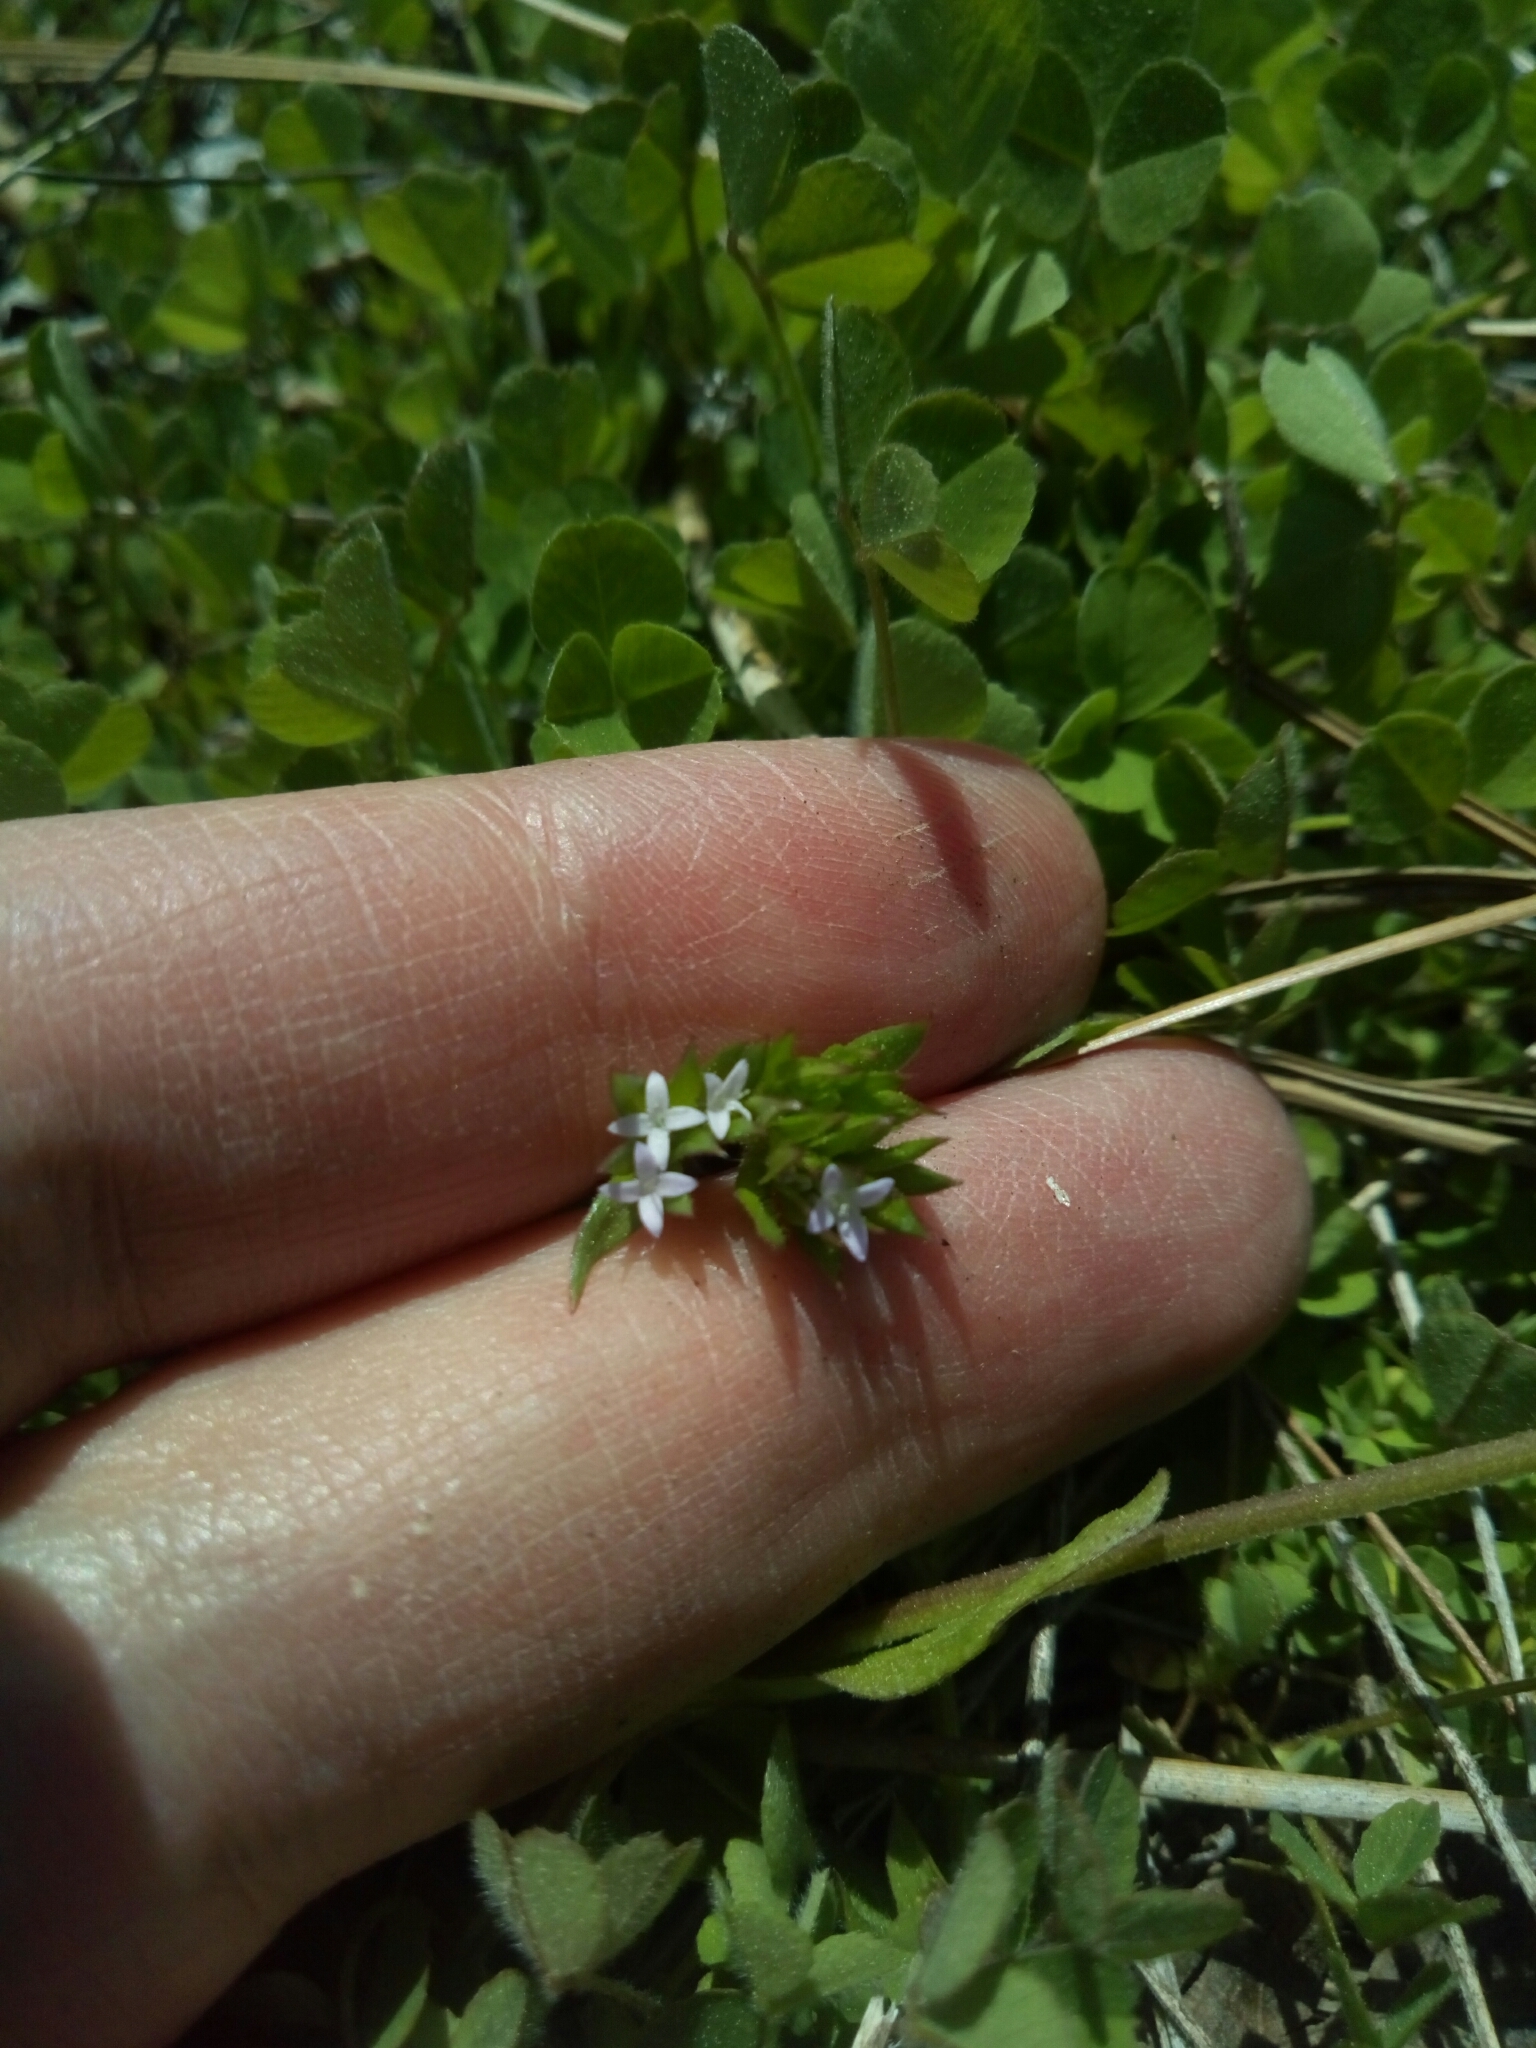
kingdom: Plantae
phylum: Tracheophyta
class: Magnoliopsida
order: Gentianales
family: Rubiaceae
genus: Sherardia
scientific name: Sherardia arvensis
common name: Field madder
